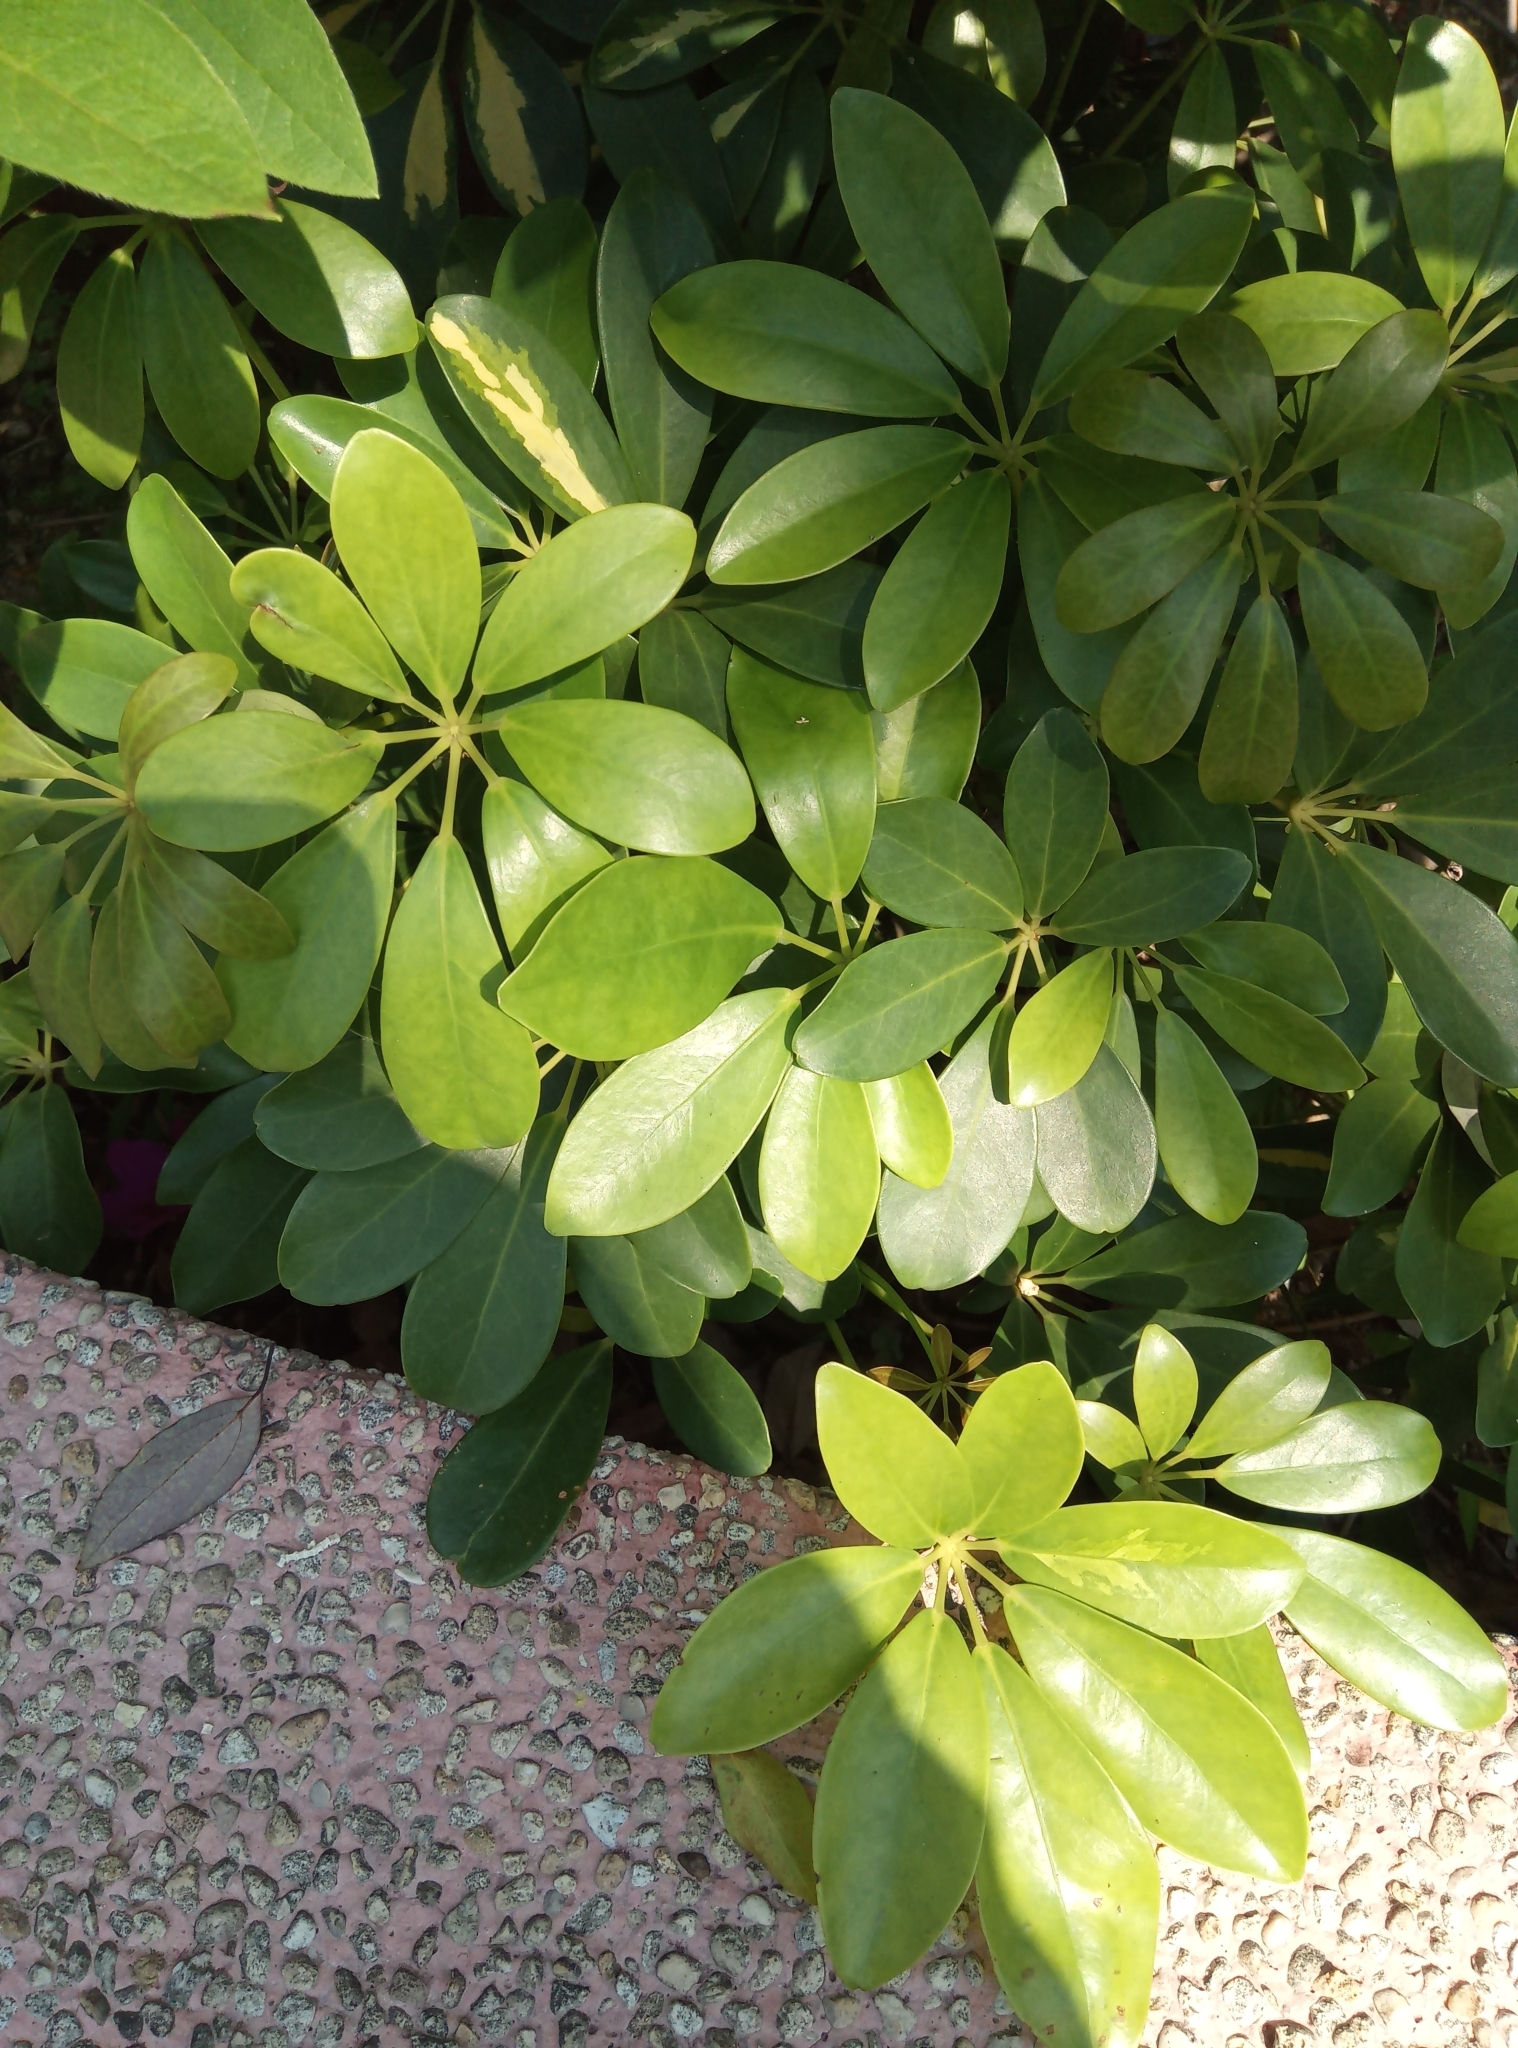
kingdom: Plantae
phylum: Tracheophyta
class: Magnoliopsida
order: Apiales
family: Araliaceae
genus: Heptapleurum
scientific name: Heptapleurum arboricola
